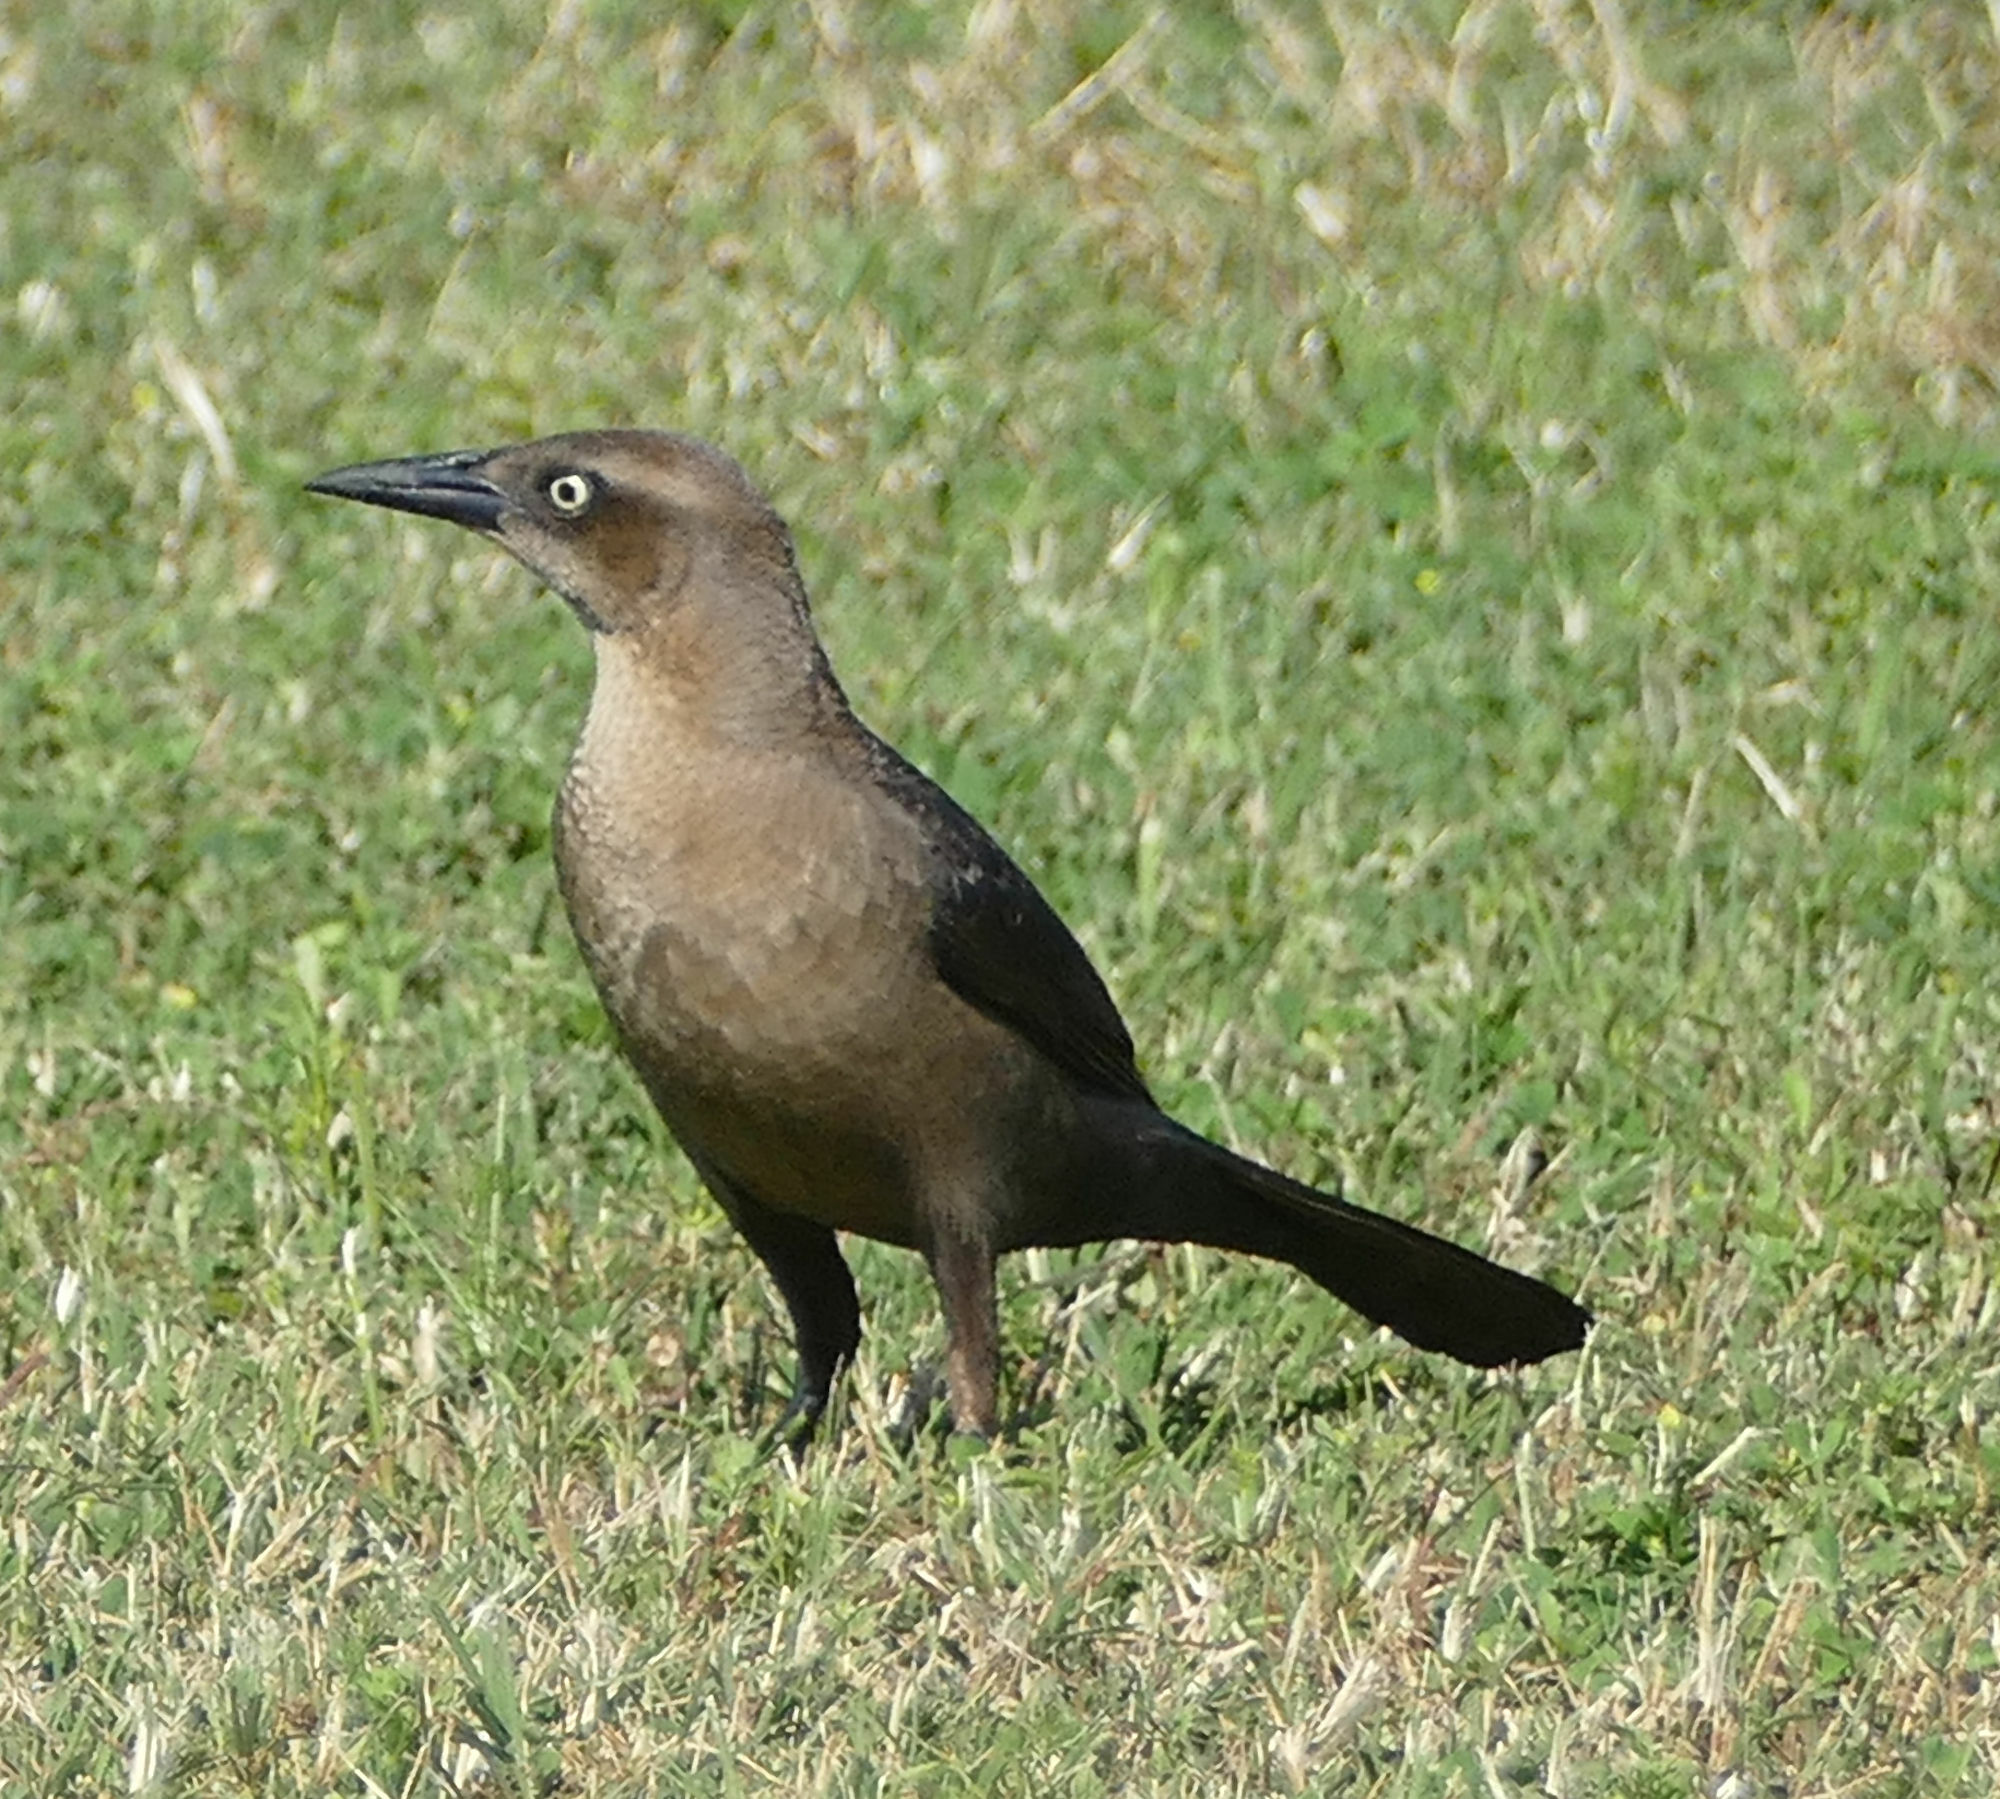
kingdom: Animalia
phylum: Chordata
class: Aves
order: Passeriformes
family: Icteridae
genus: Quiscalus
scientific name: Quiscalus mexicanus
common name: Great-tailed grackle
